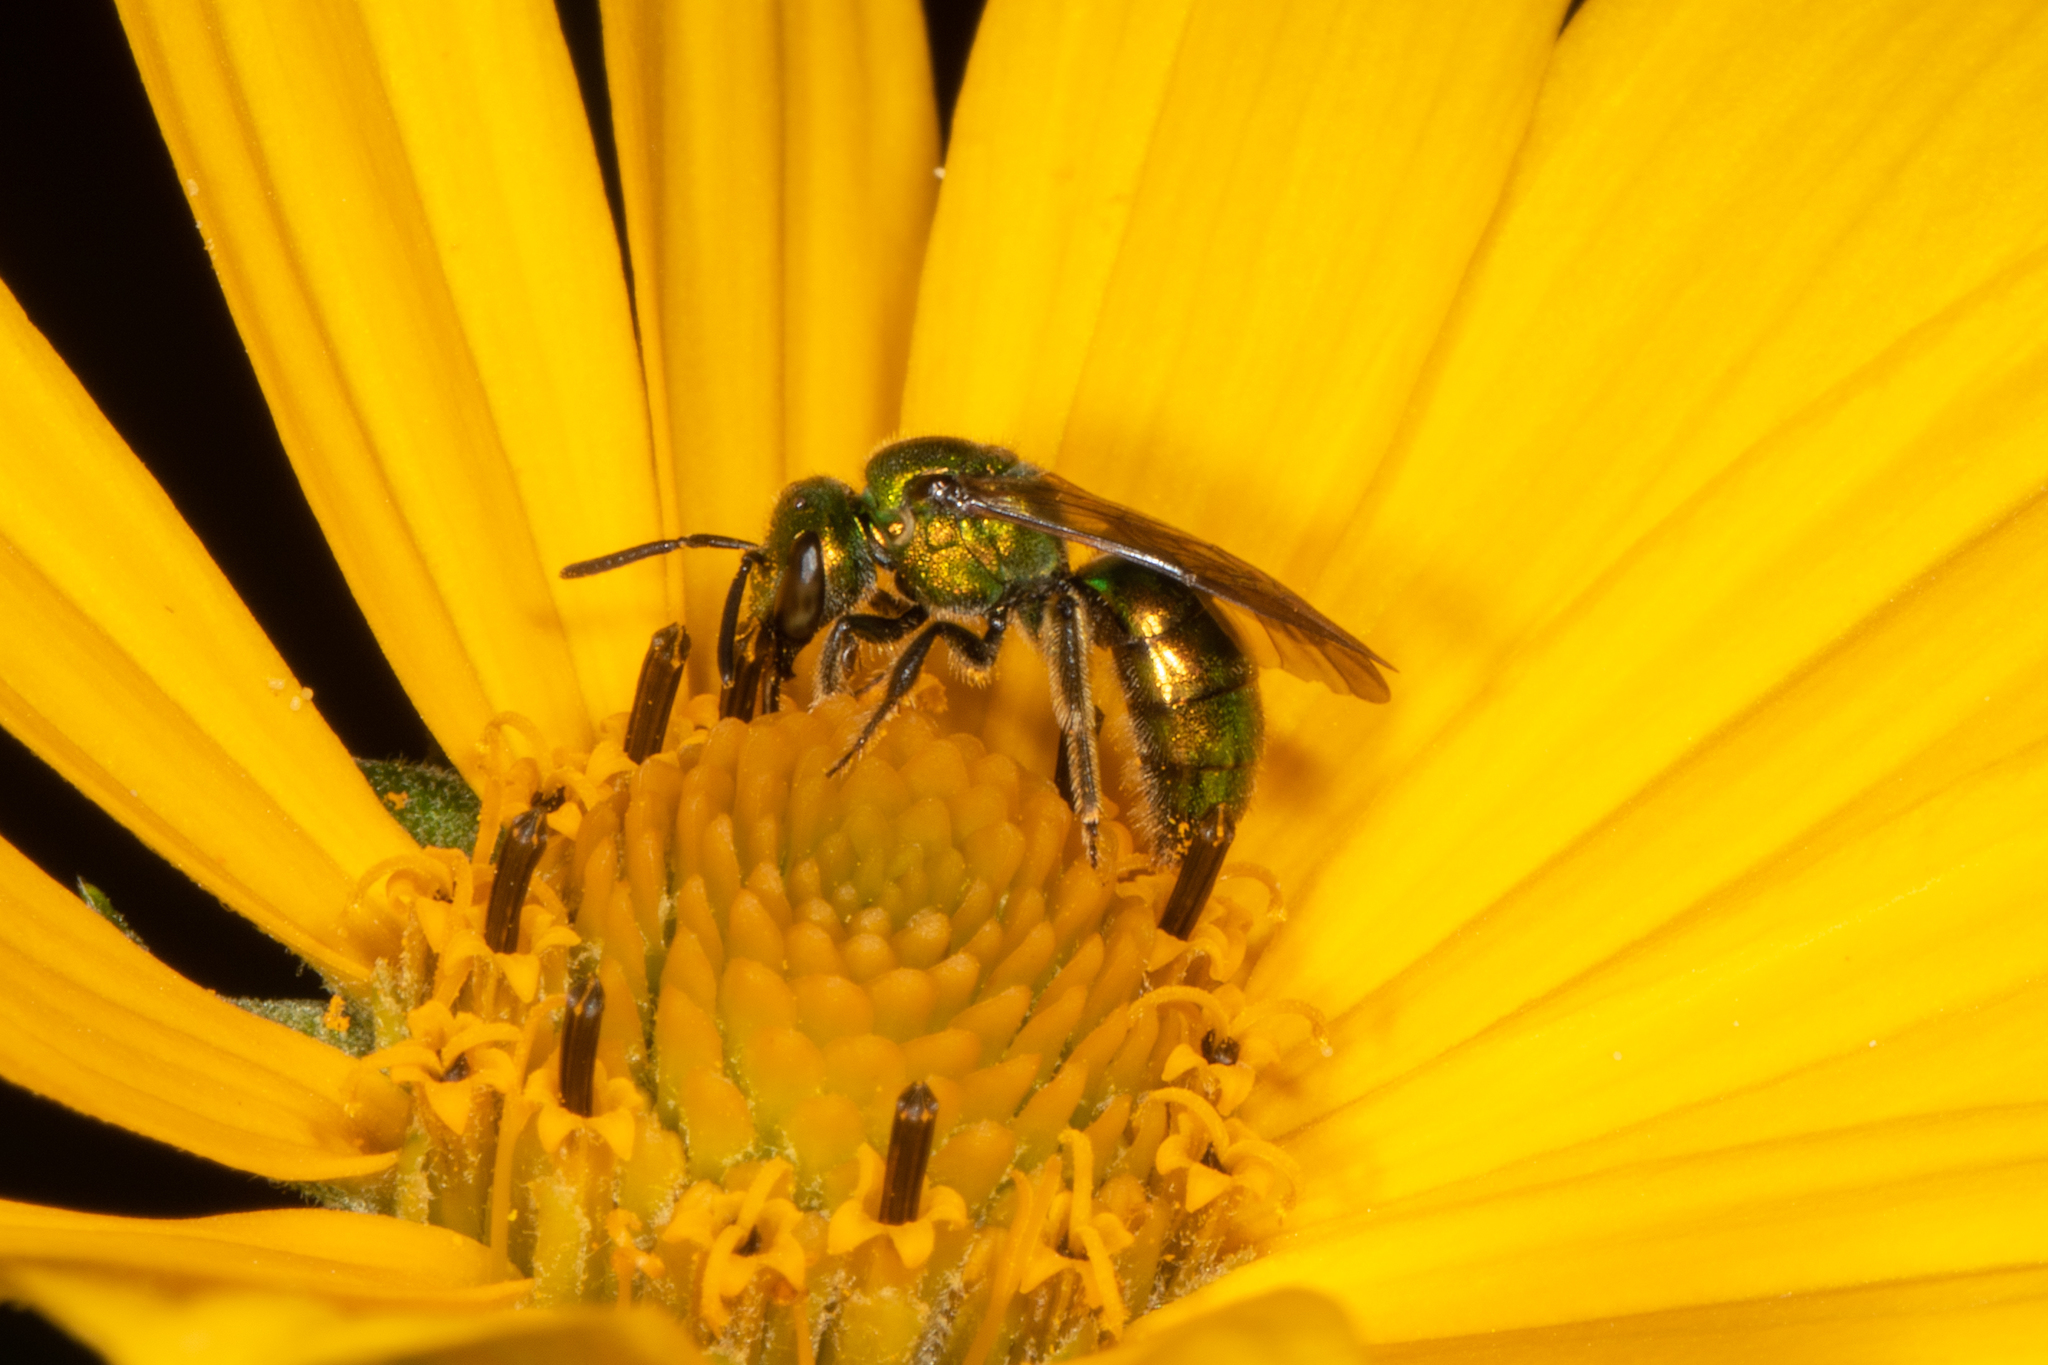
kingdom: Animalia
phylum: Arthropoda
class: Insecta
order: Hymenoptera
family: Halictidae
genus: Augochlora
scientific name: Augochlora pura
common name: Pure green sweat bee
